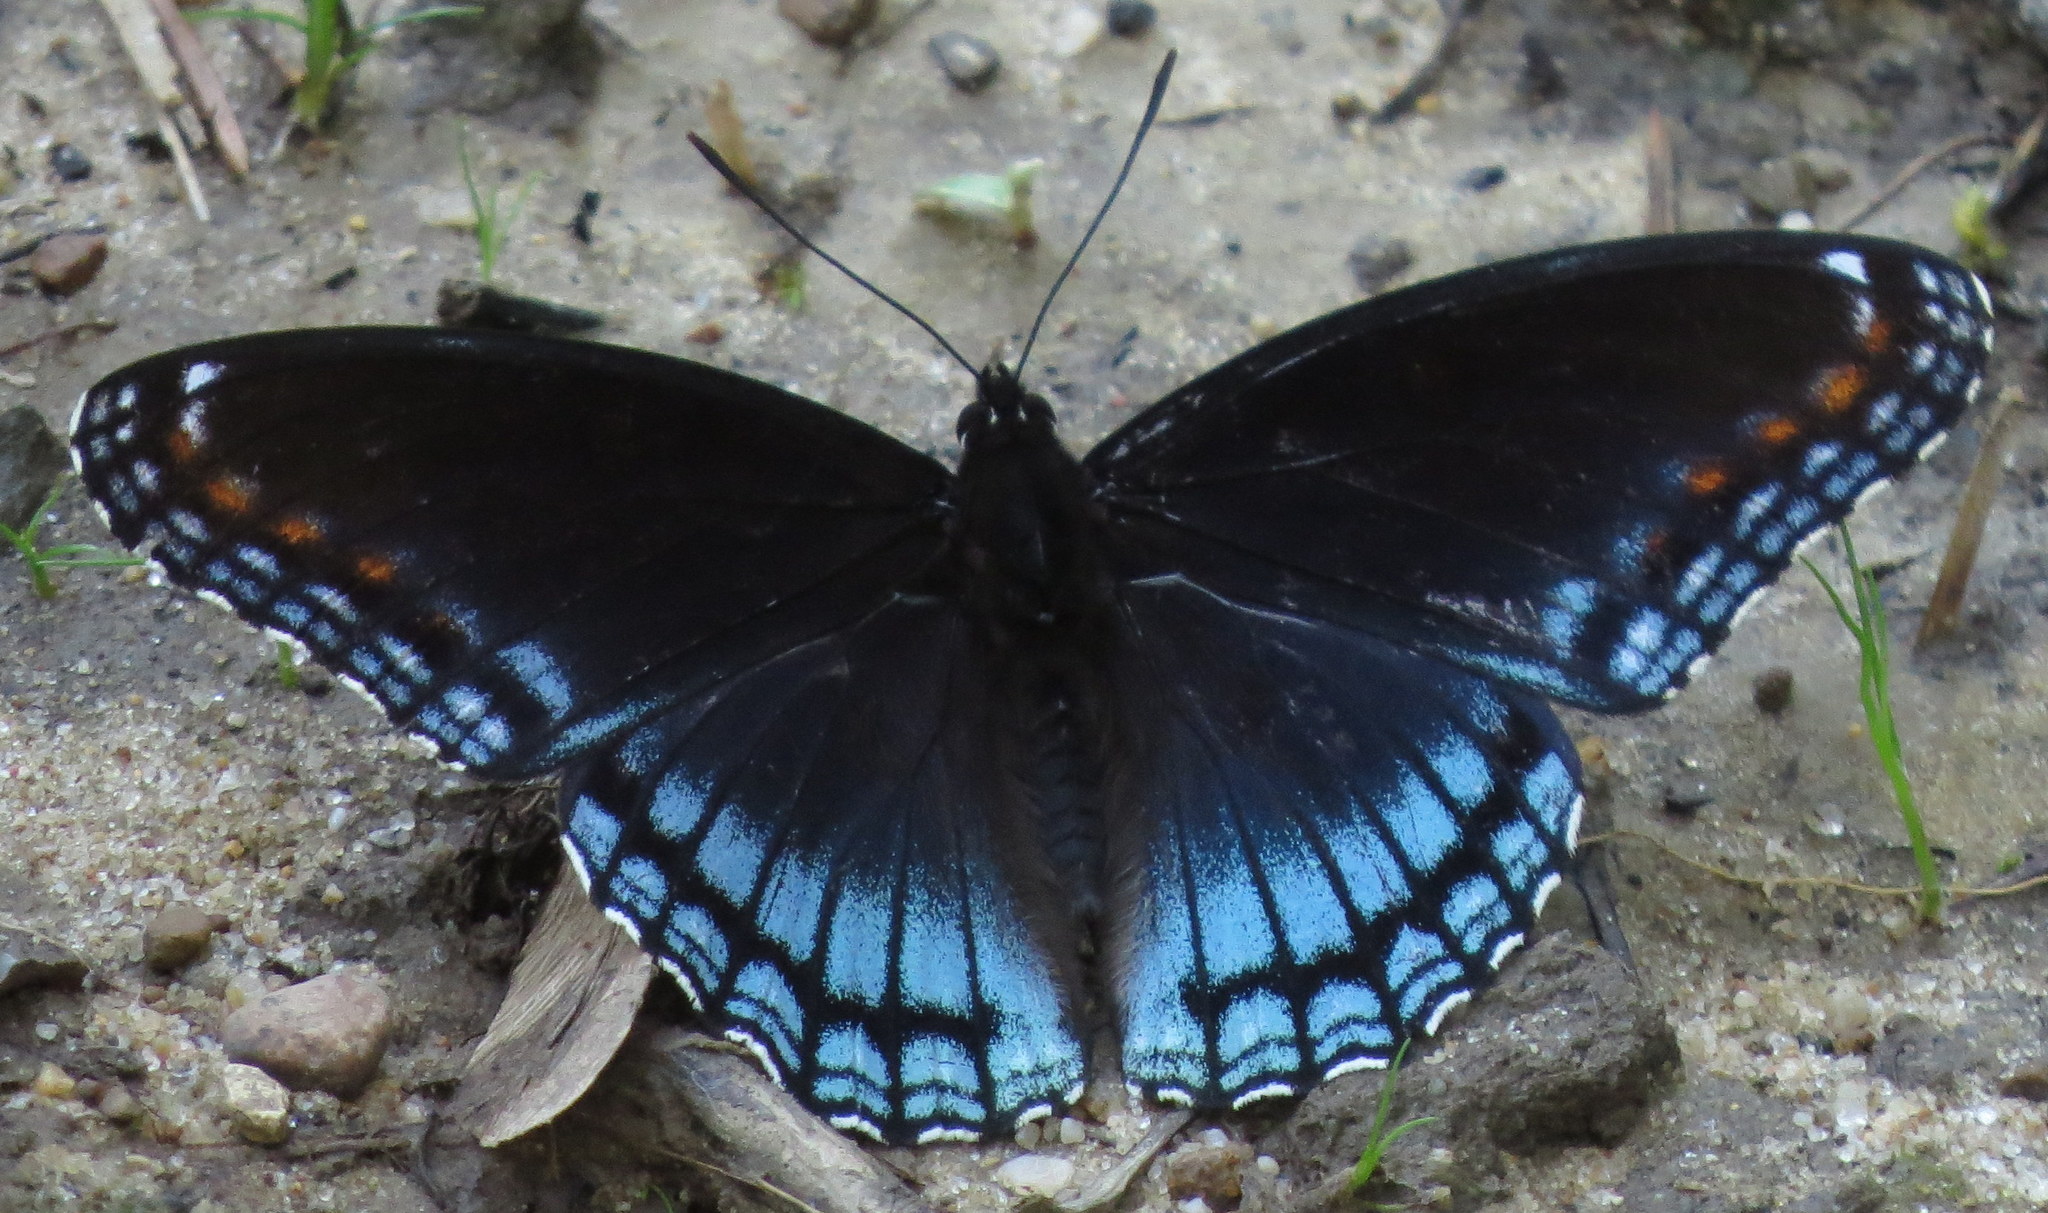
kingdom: Animalia
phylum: Arthropoda
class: Insecta
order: Lepidoptera
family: Nymphalidae
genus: Limenitis
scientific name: Limenitis astyanax
